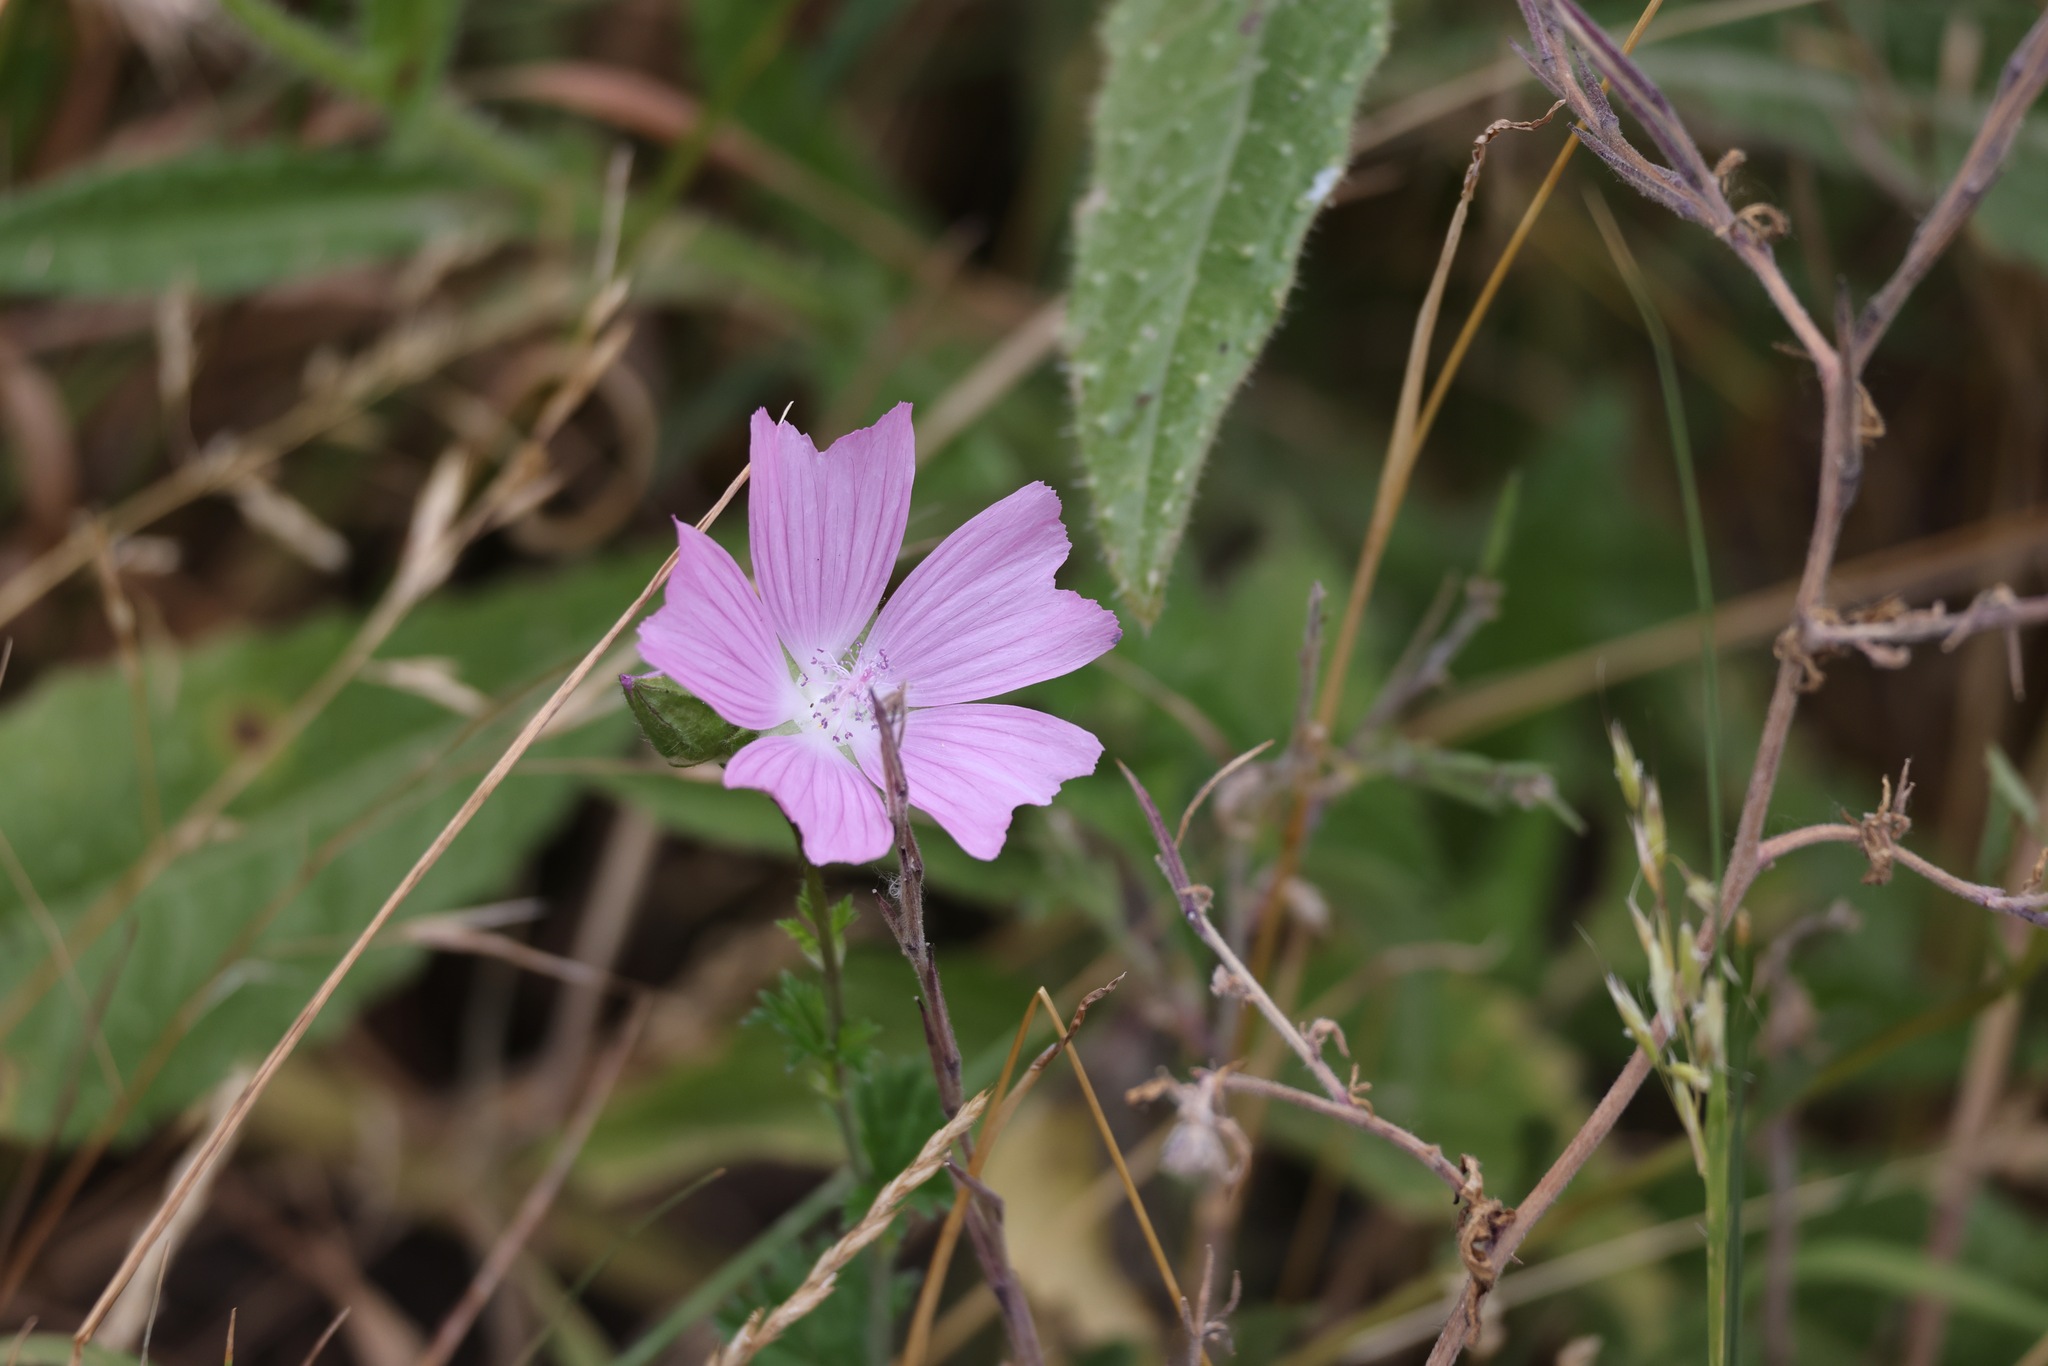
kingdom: Plantae
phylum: Tracheophyta
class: Magnoliopsida
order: Malvales
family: Malvaceae
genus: Malva
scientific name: Malva moschata
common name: Musk mallow
